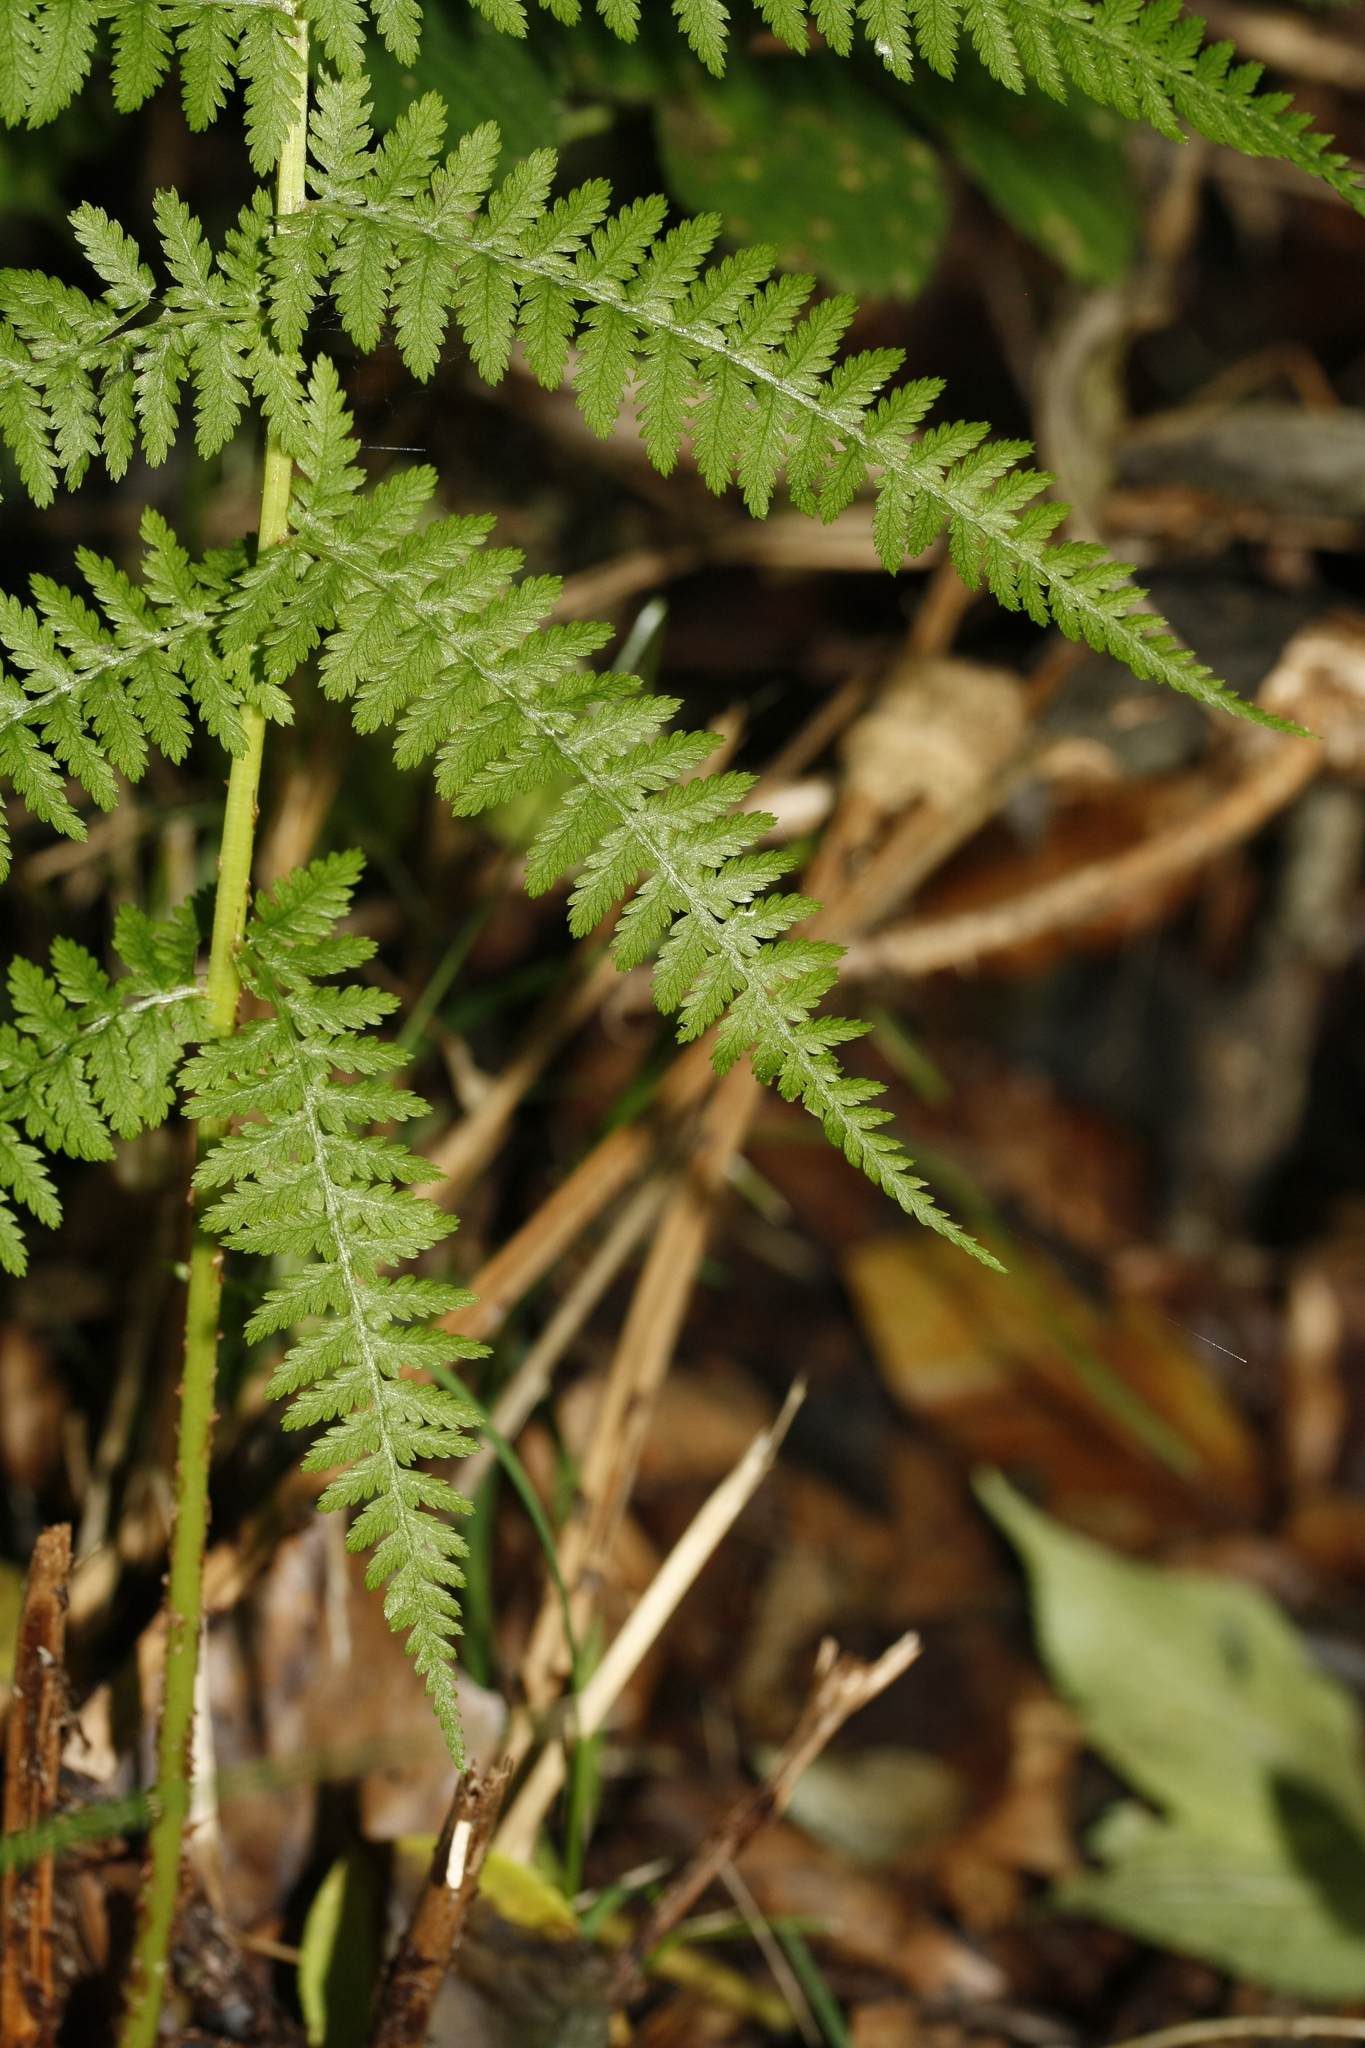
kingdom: Plantae
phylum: Tracheophyta
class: Polypodiopsida
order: Polypodiales
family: Athyriaceae
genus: Athyrium
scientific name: Athyrium filix-femina
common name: Lady fern
